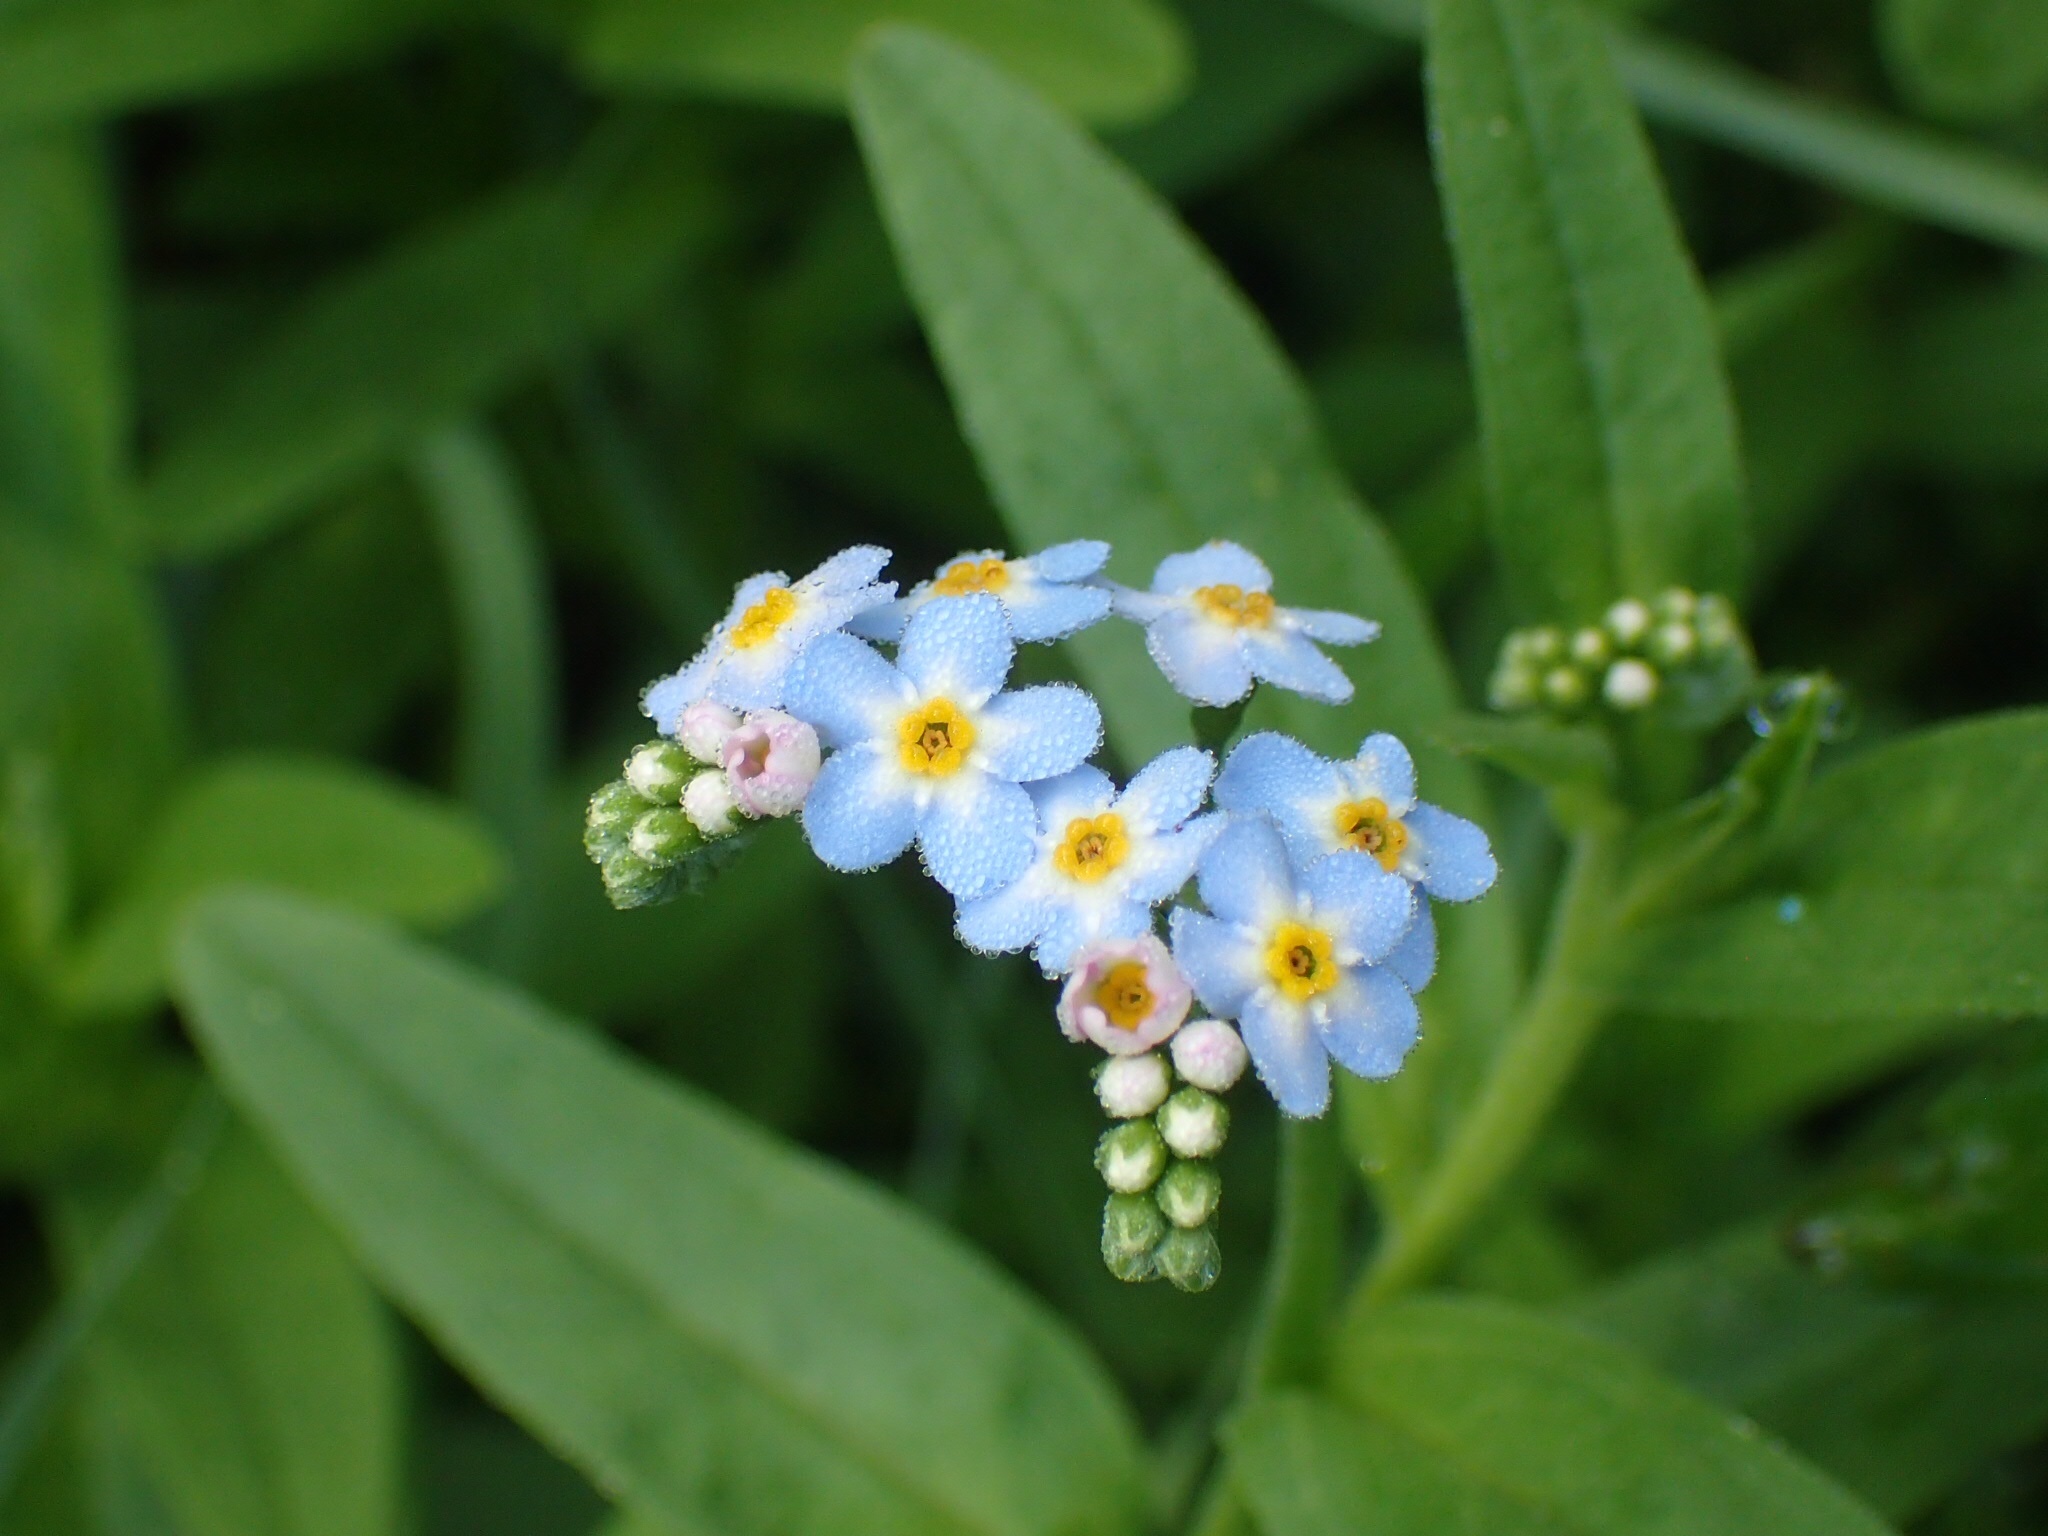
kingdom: Plantae
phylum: Tracheophyta
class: Magnoliopsida
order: Boraginales
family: Boraginaceae
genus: Myosotis
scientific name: Myosotis scorpioides
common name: Water forget-me-not
